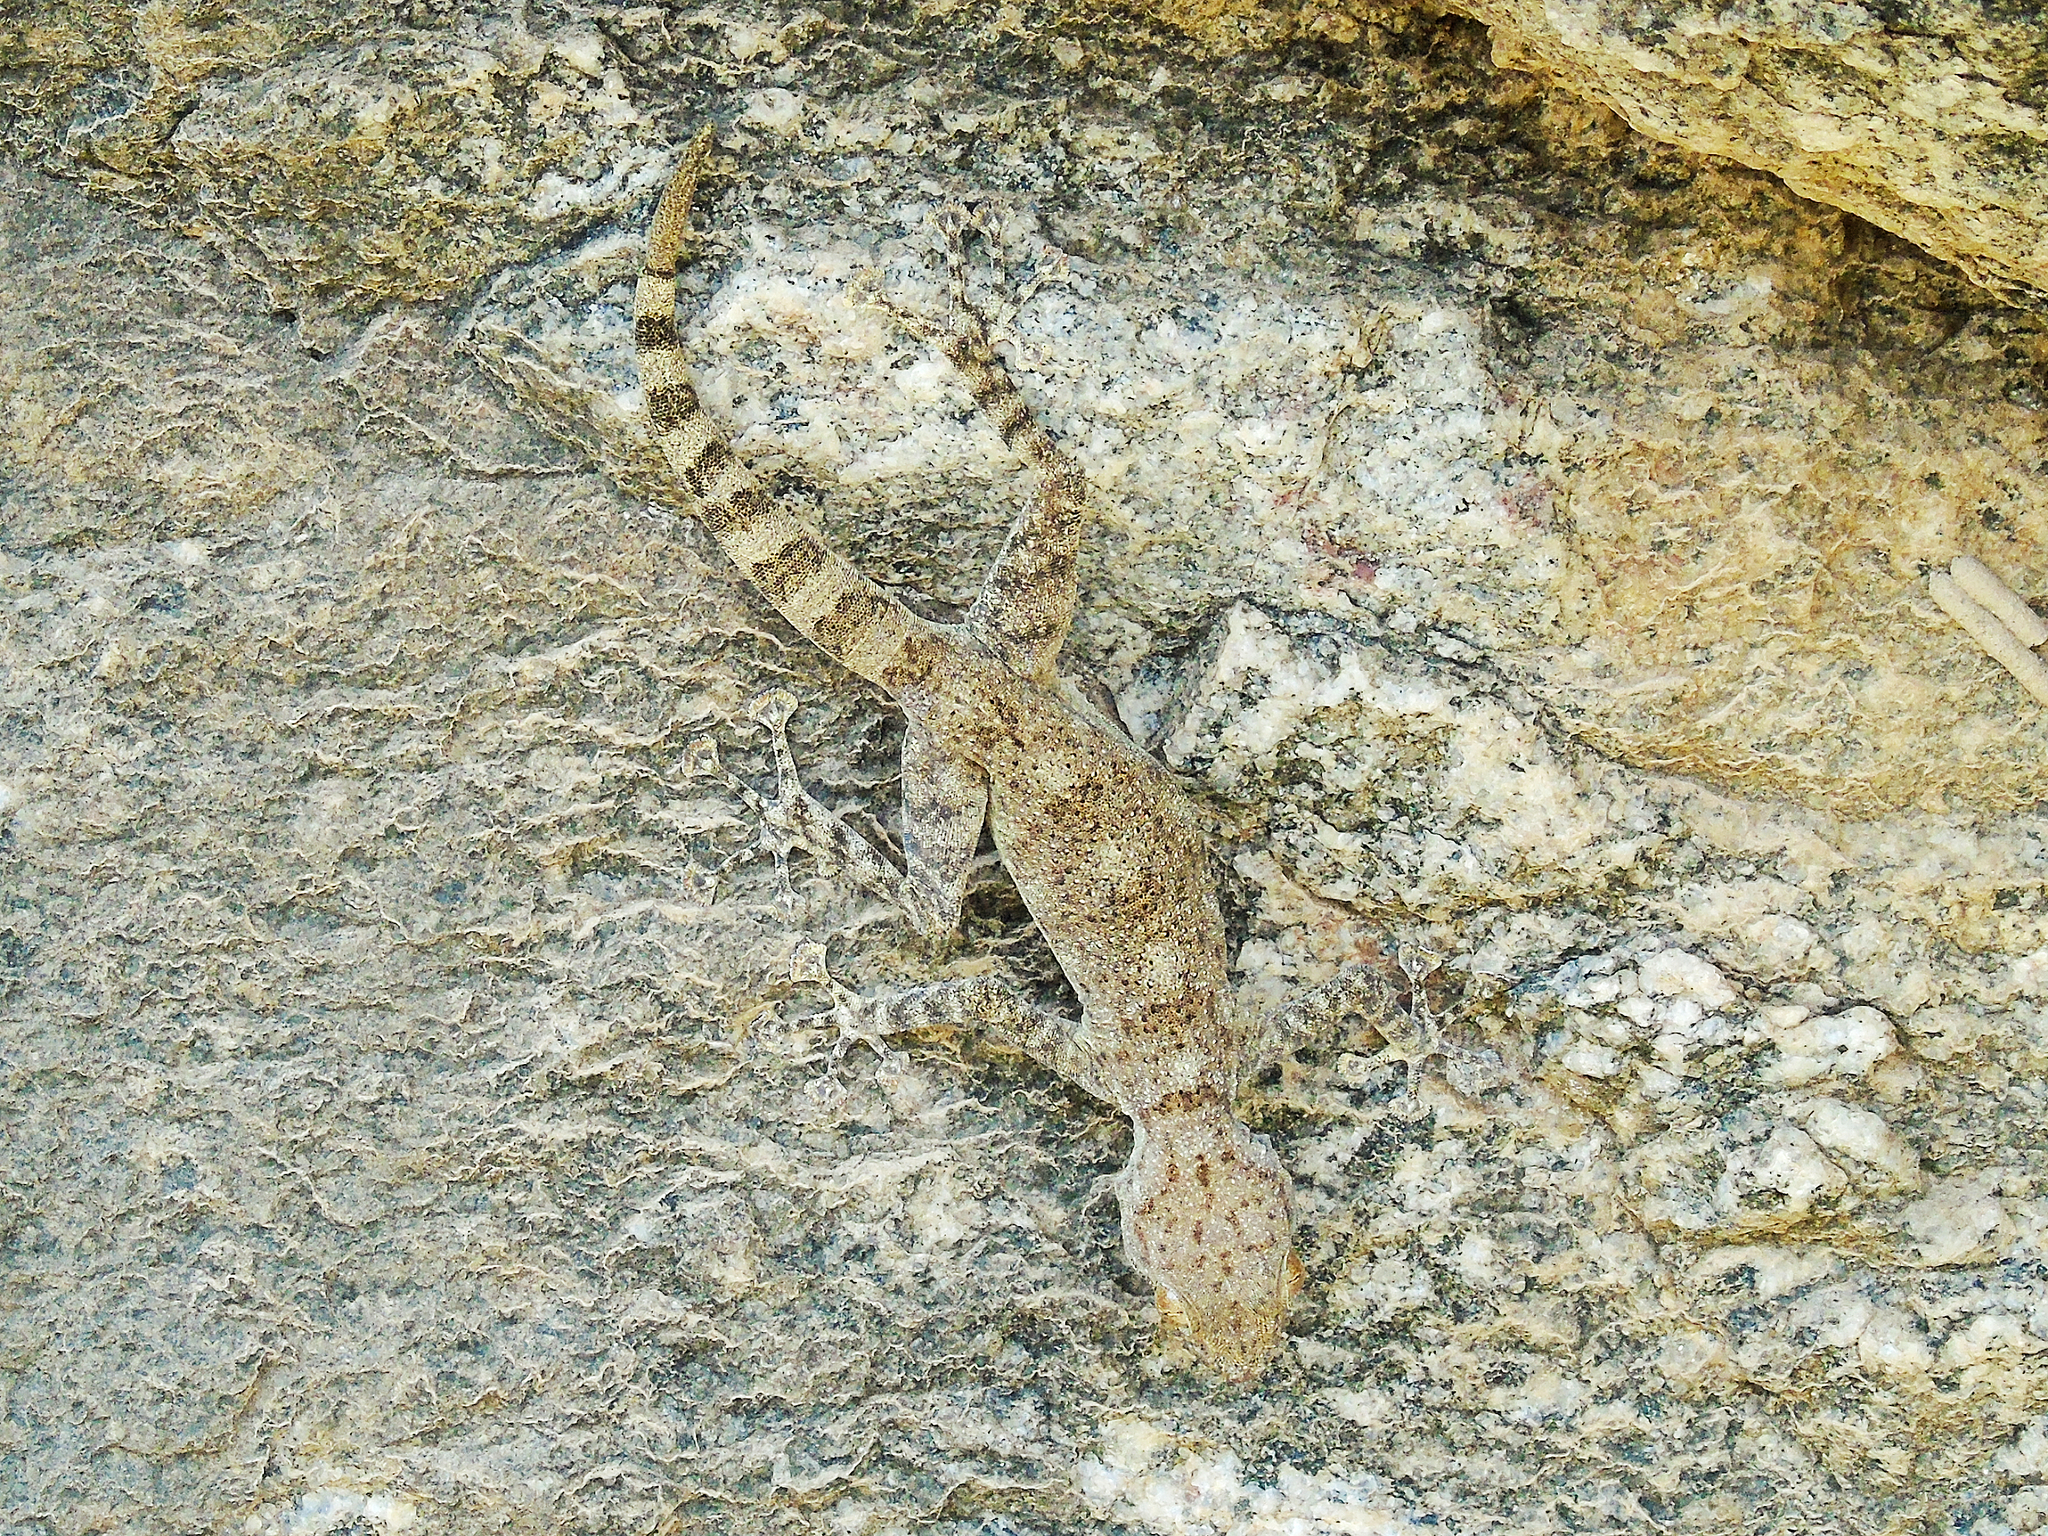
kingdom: Animalia
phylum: Chordata
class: Squamata
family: Phyllodactylidae
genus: Ptyodactylus
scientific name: Ptyodactylus dhofarensis
